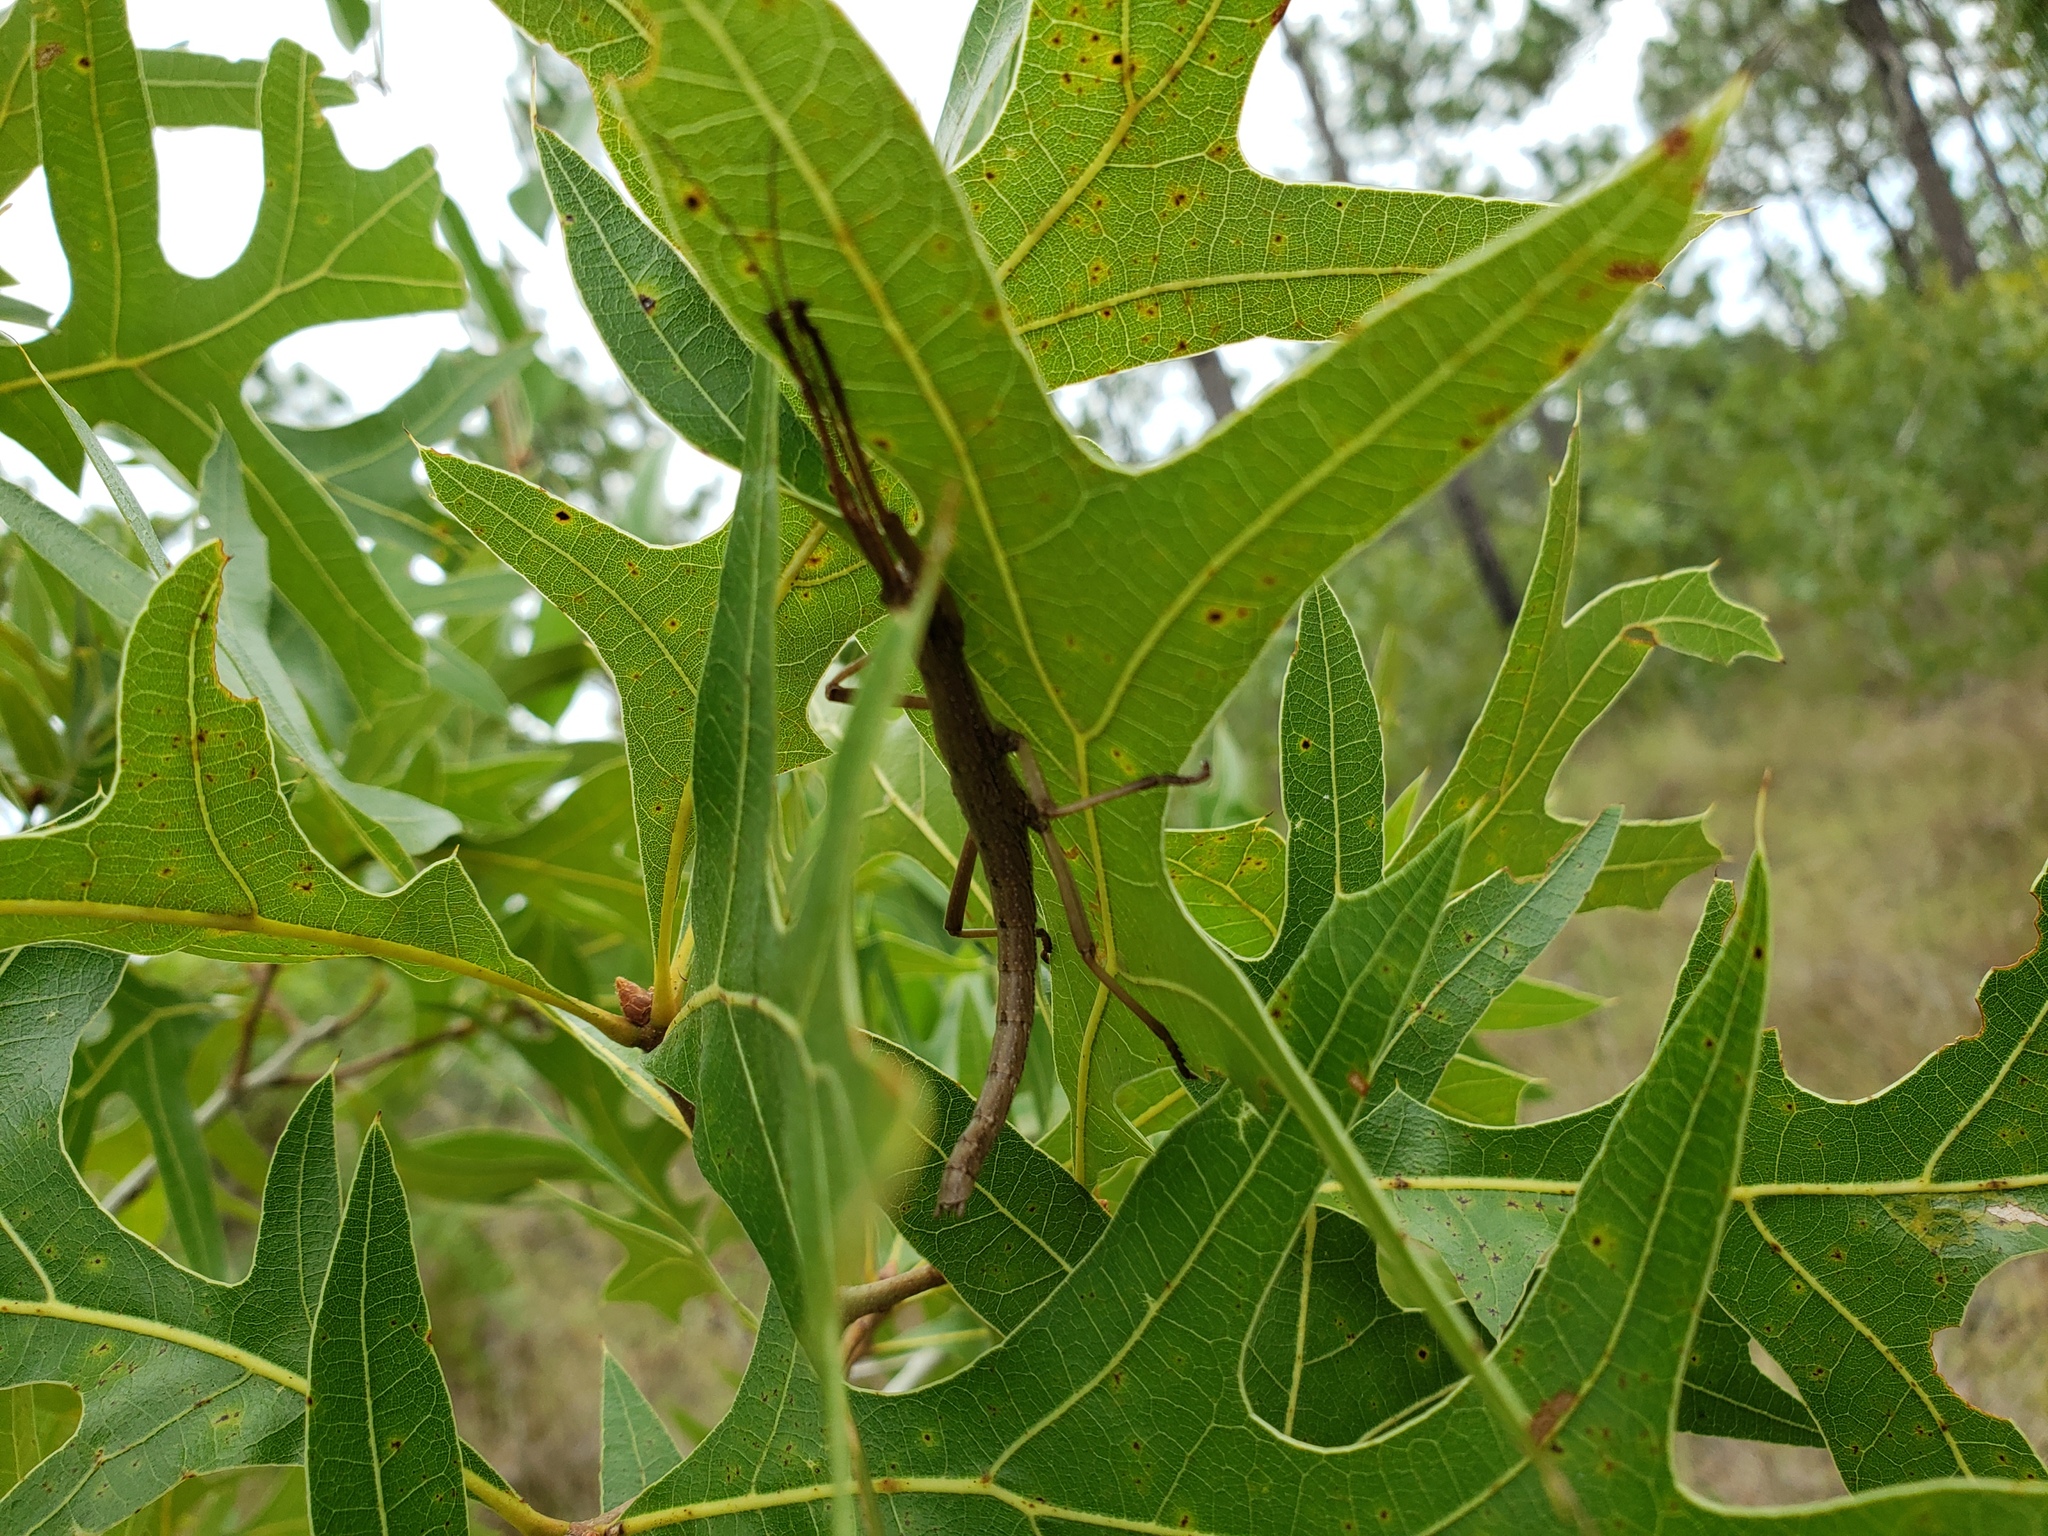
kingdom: Animalia
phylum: Arthropoda
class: Insecta
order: Phasmida
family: Pseudophasmatidae
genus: Anisomorpha
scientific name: Anisomorpha buprestoides
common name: Florida stick insect
